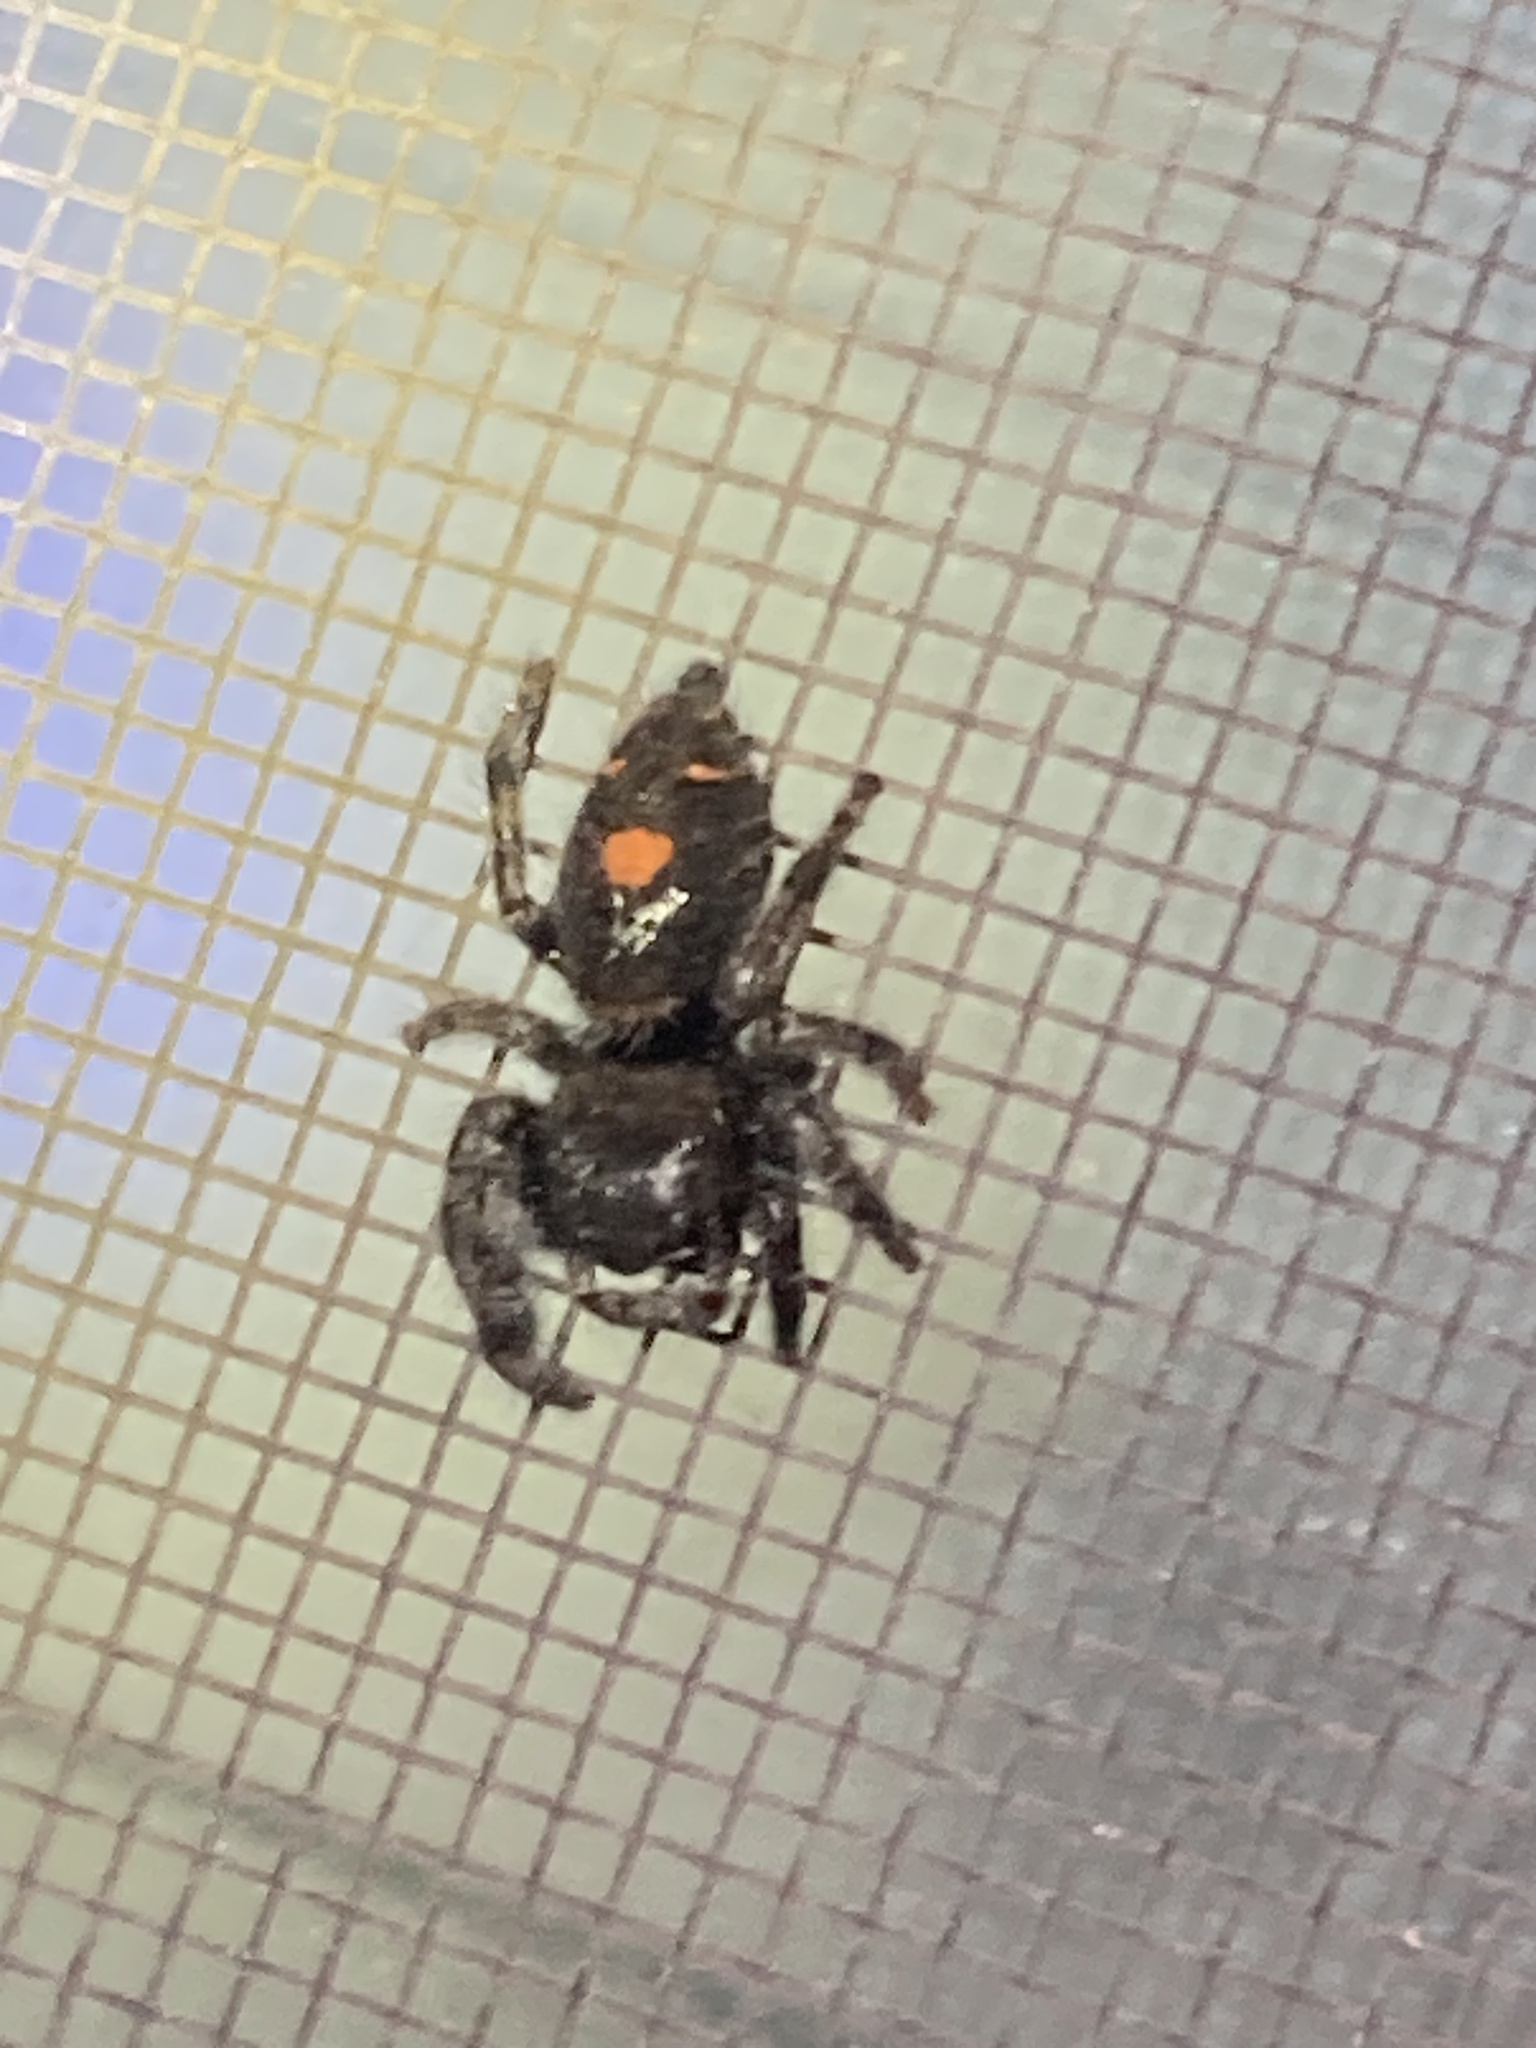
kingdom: Animalia
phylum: Arthropoda
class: Arachnida
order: Araneae
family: Salticidae
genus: Phidippus
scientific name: Phidippus audax
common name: Bold jumper
